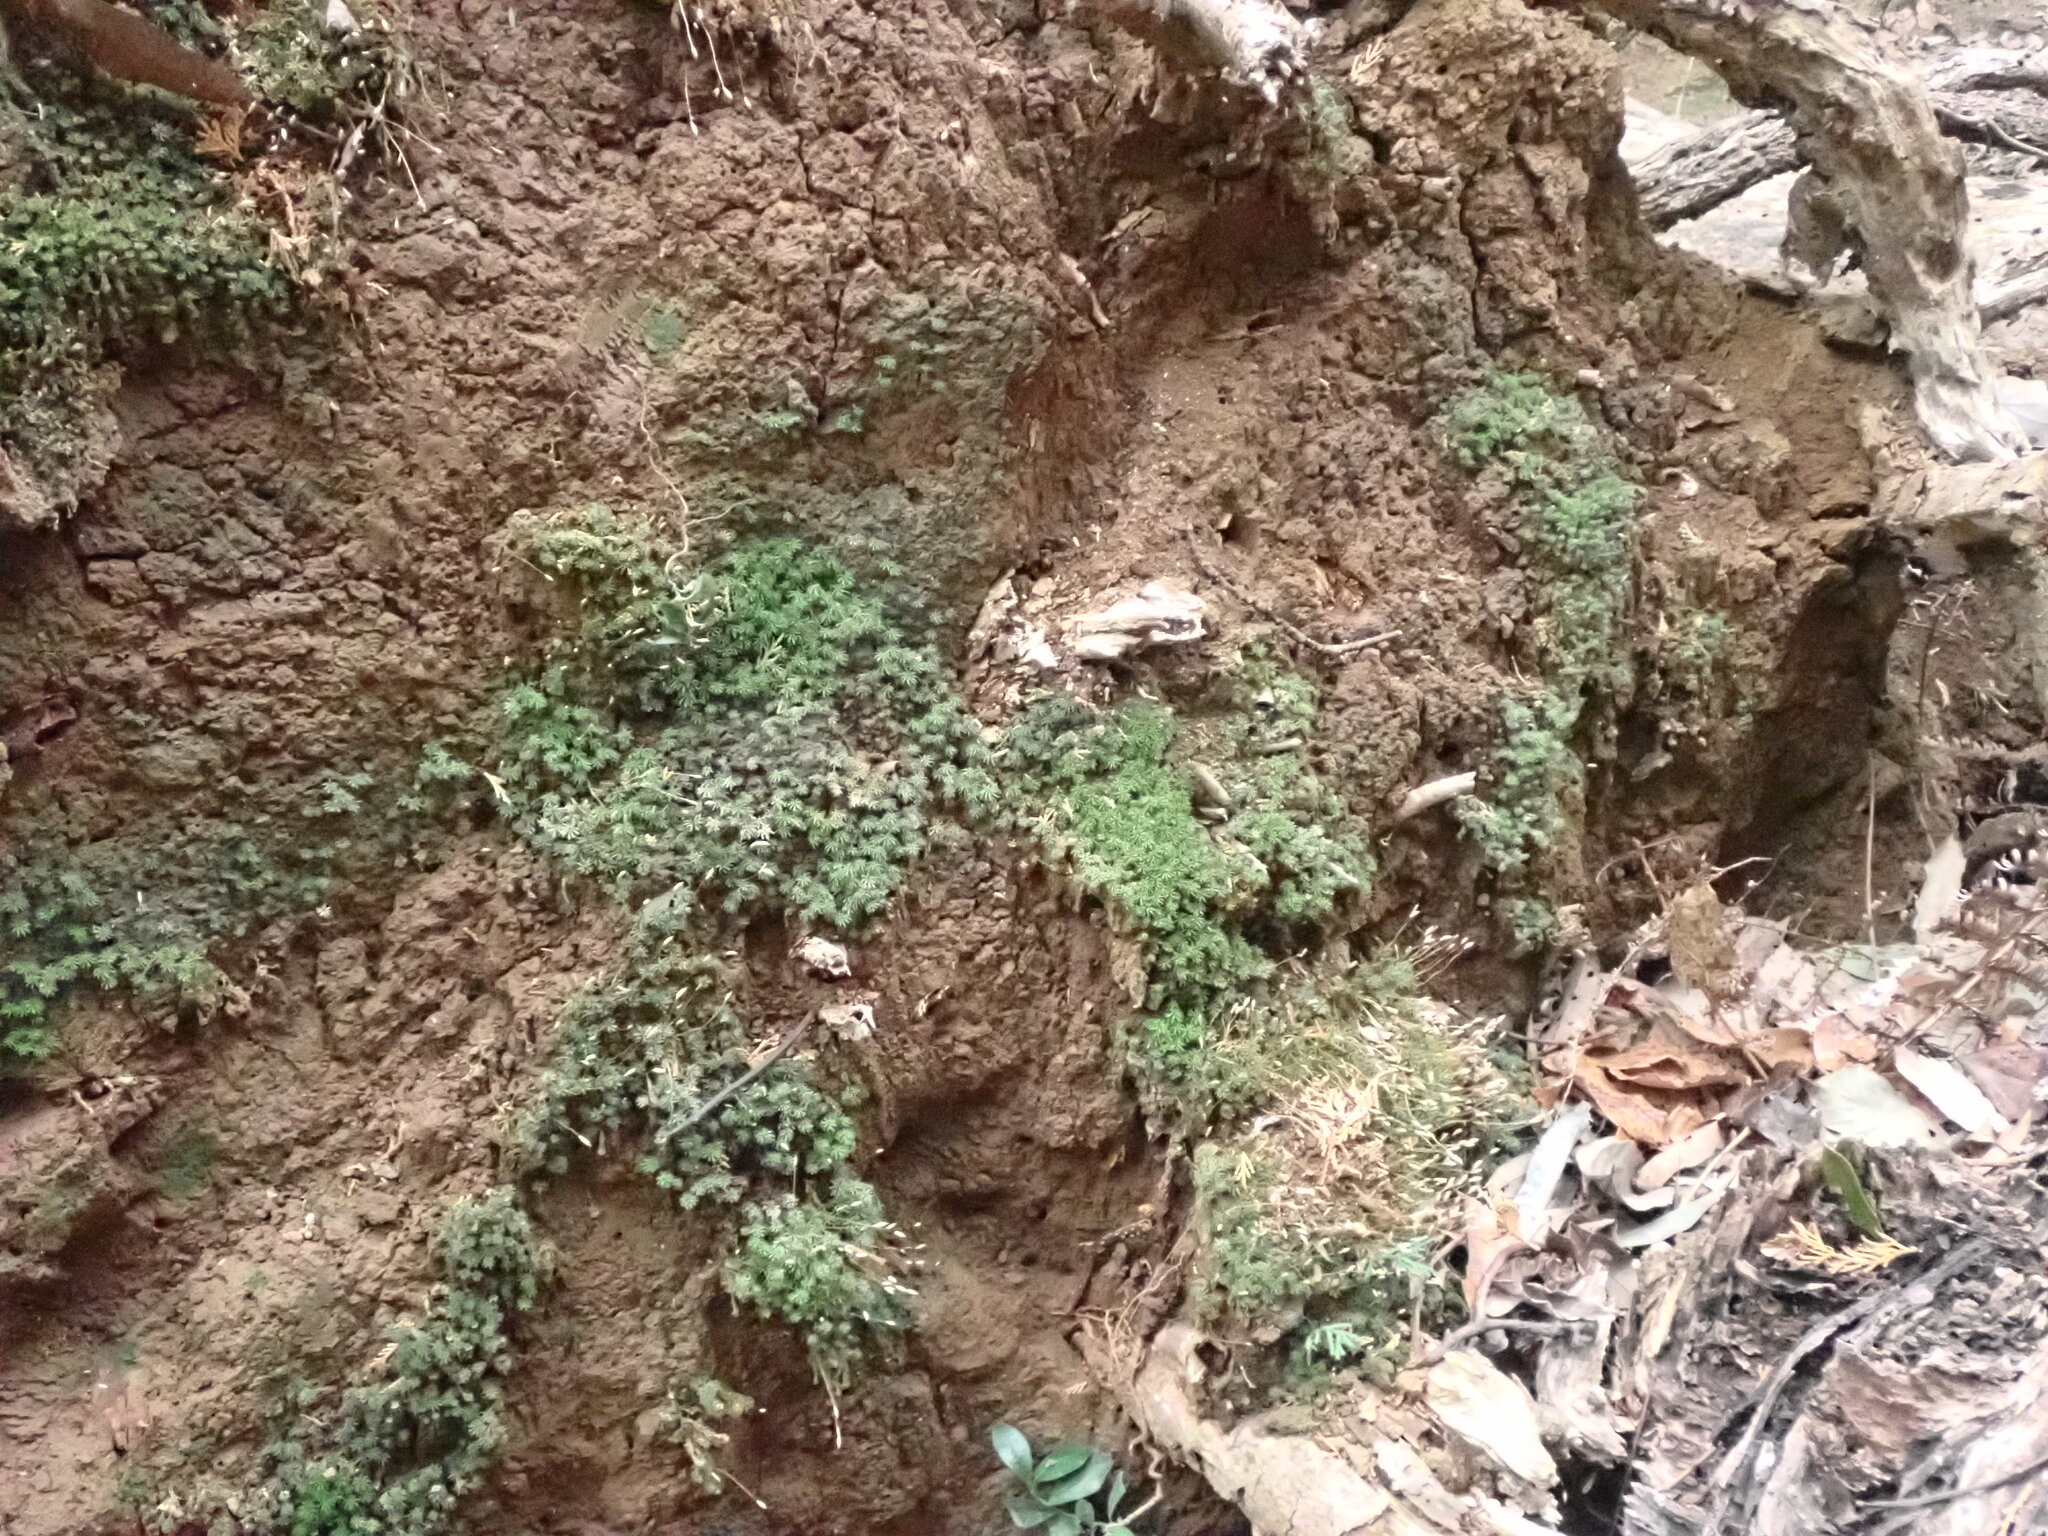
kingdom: Plantae
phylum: Bryophyta
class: Polytrichopsida
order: Polytrichales
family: Polytrichaceae
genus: Pogonatum
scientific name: Pogonatum inflexum
